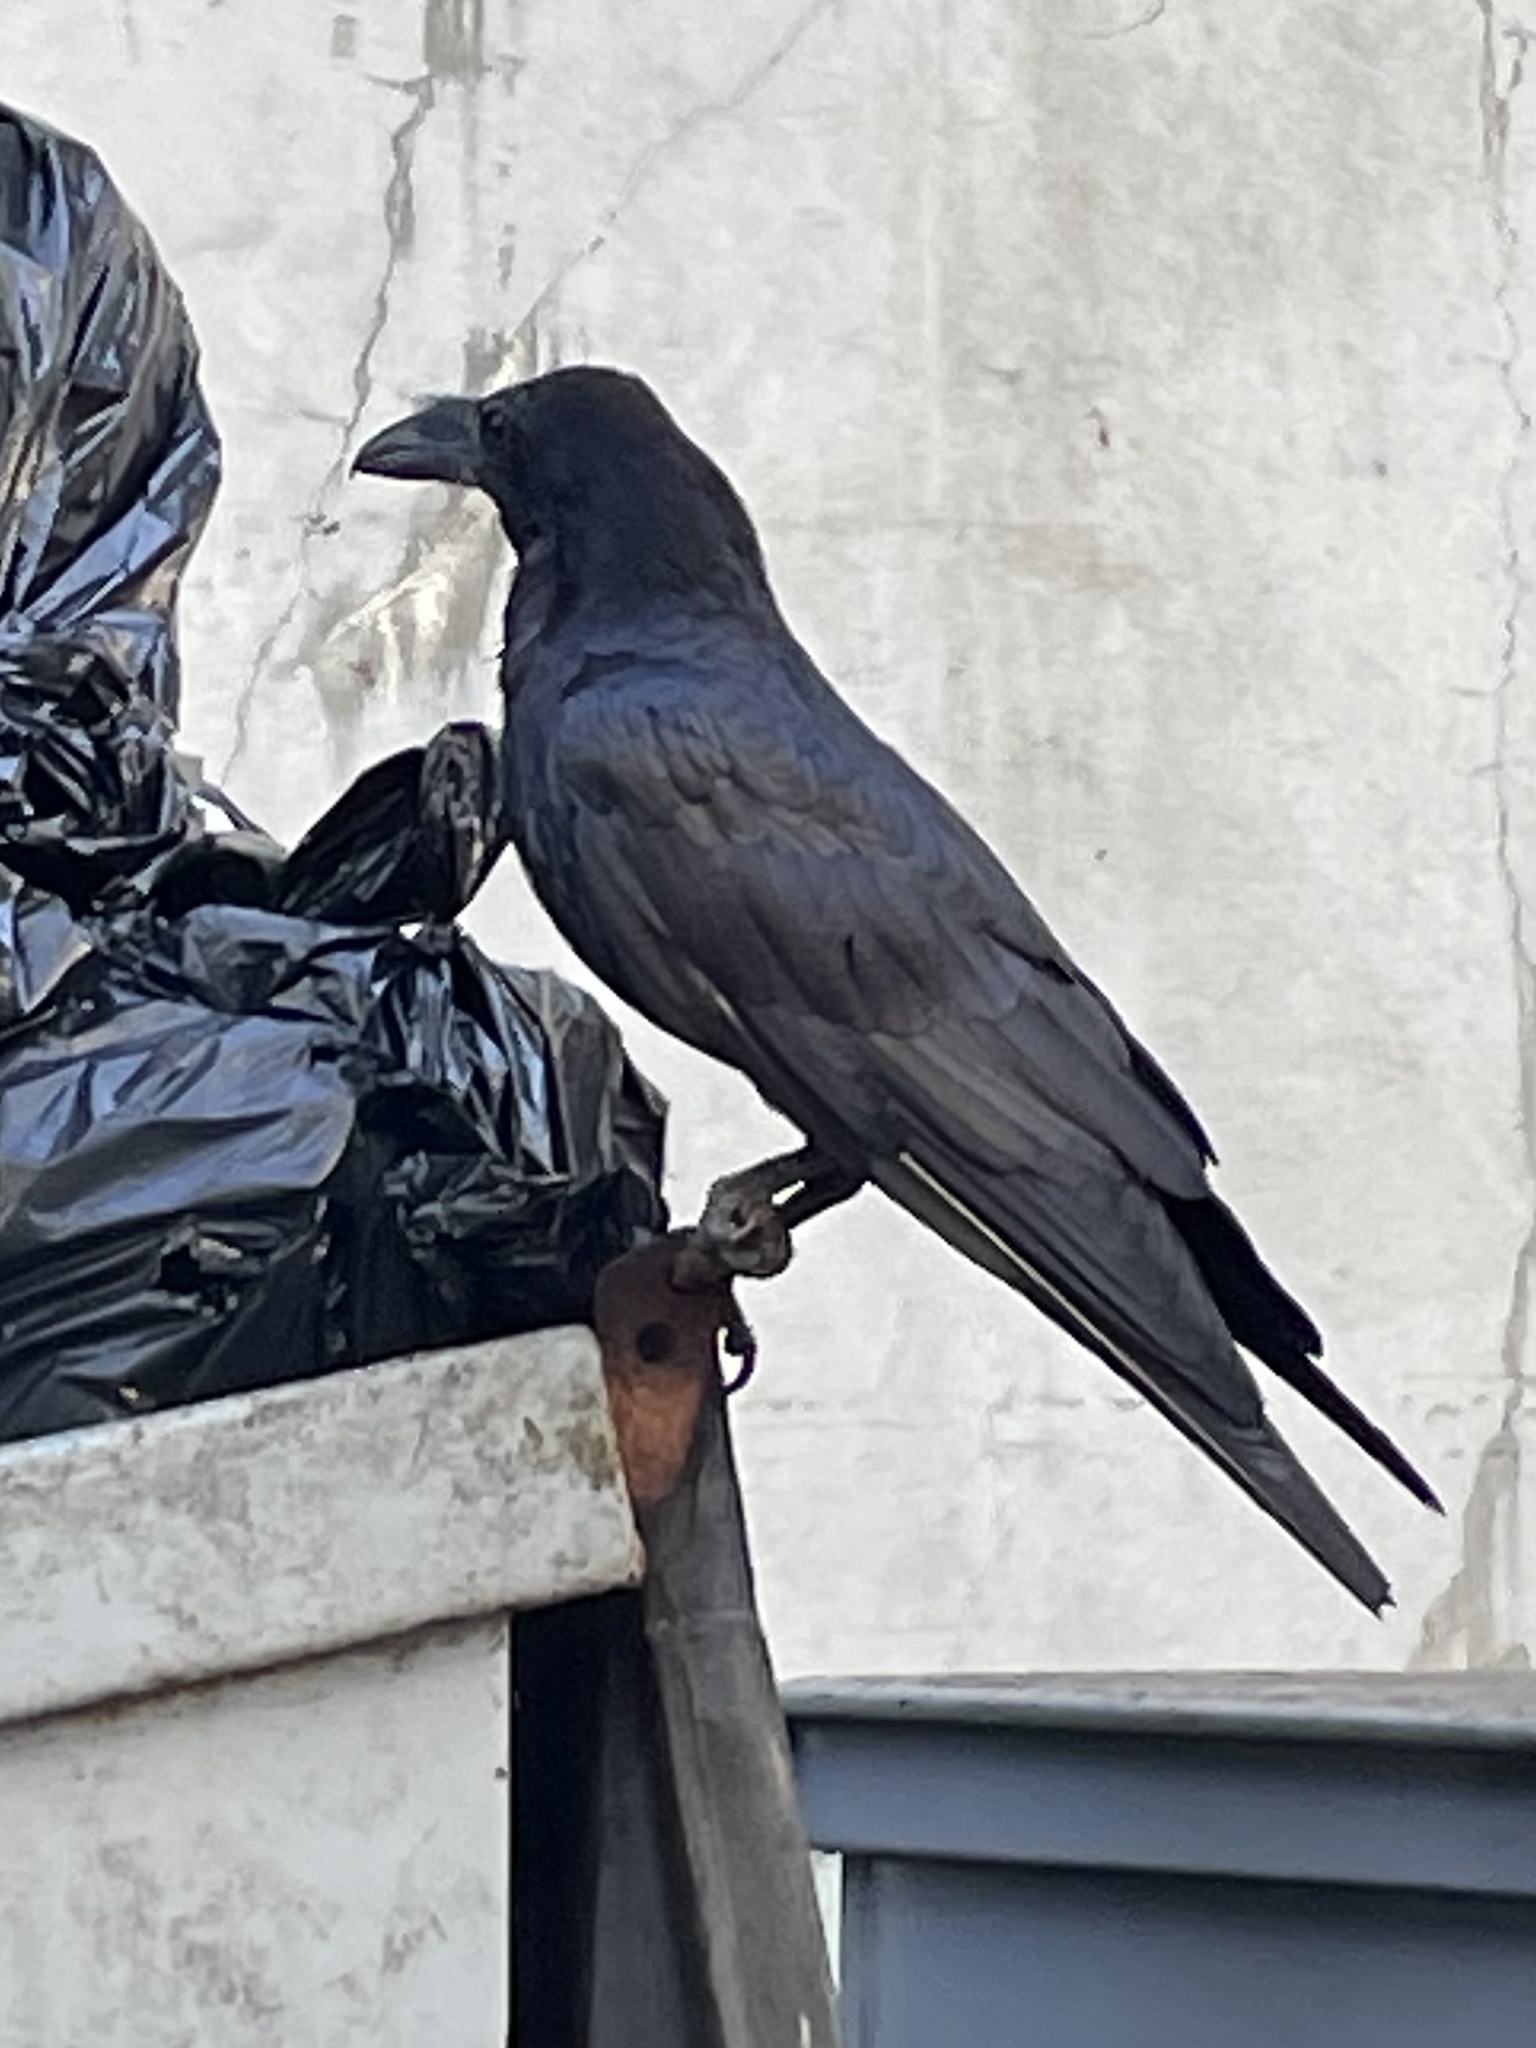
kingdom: Animalia
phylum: Chordata
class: Aves
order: Passeriformes
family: Corvidae
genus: Corvus
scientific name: Corvus corax
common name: Common raven
